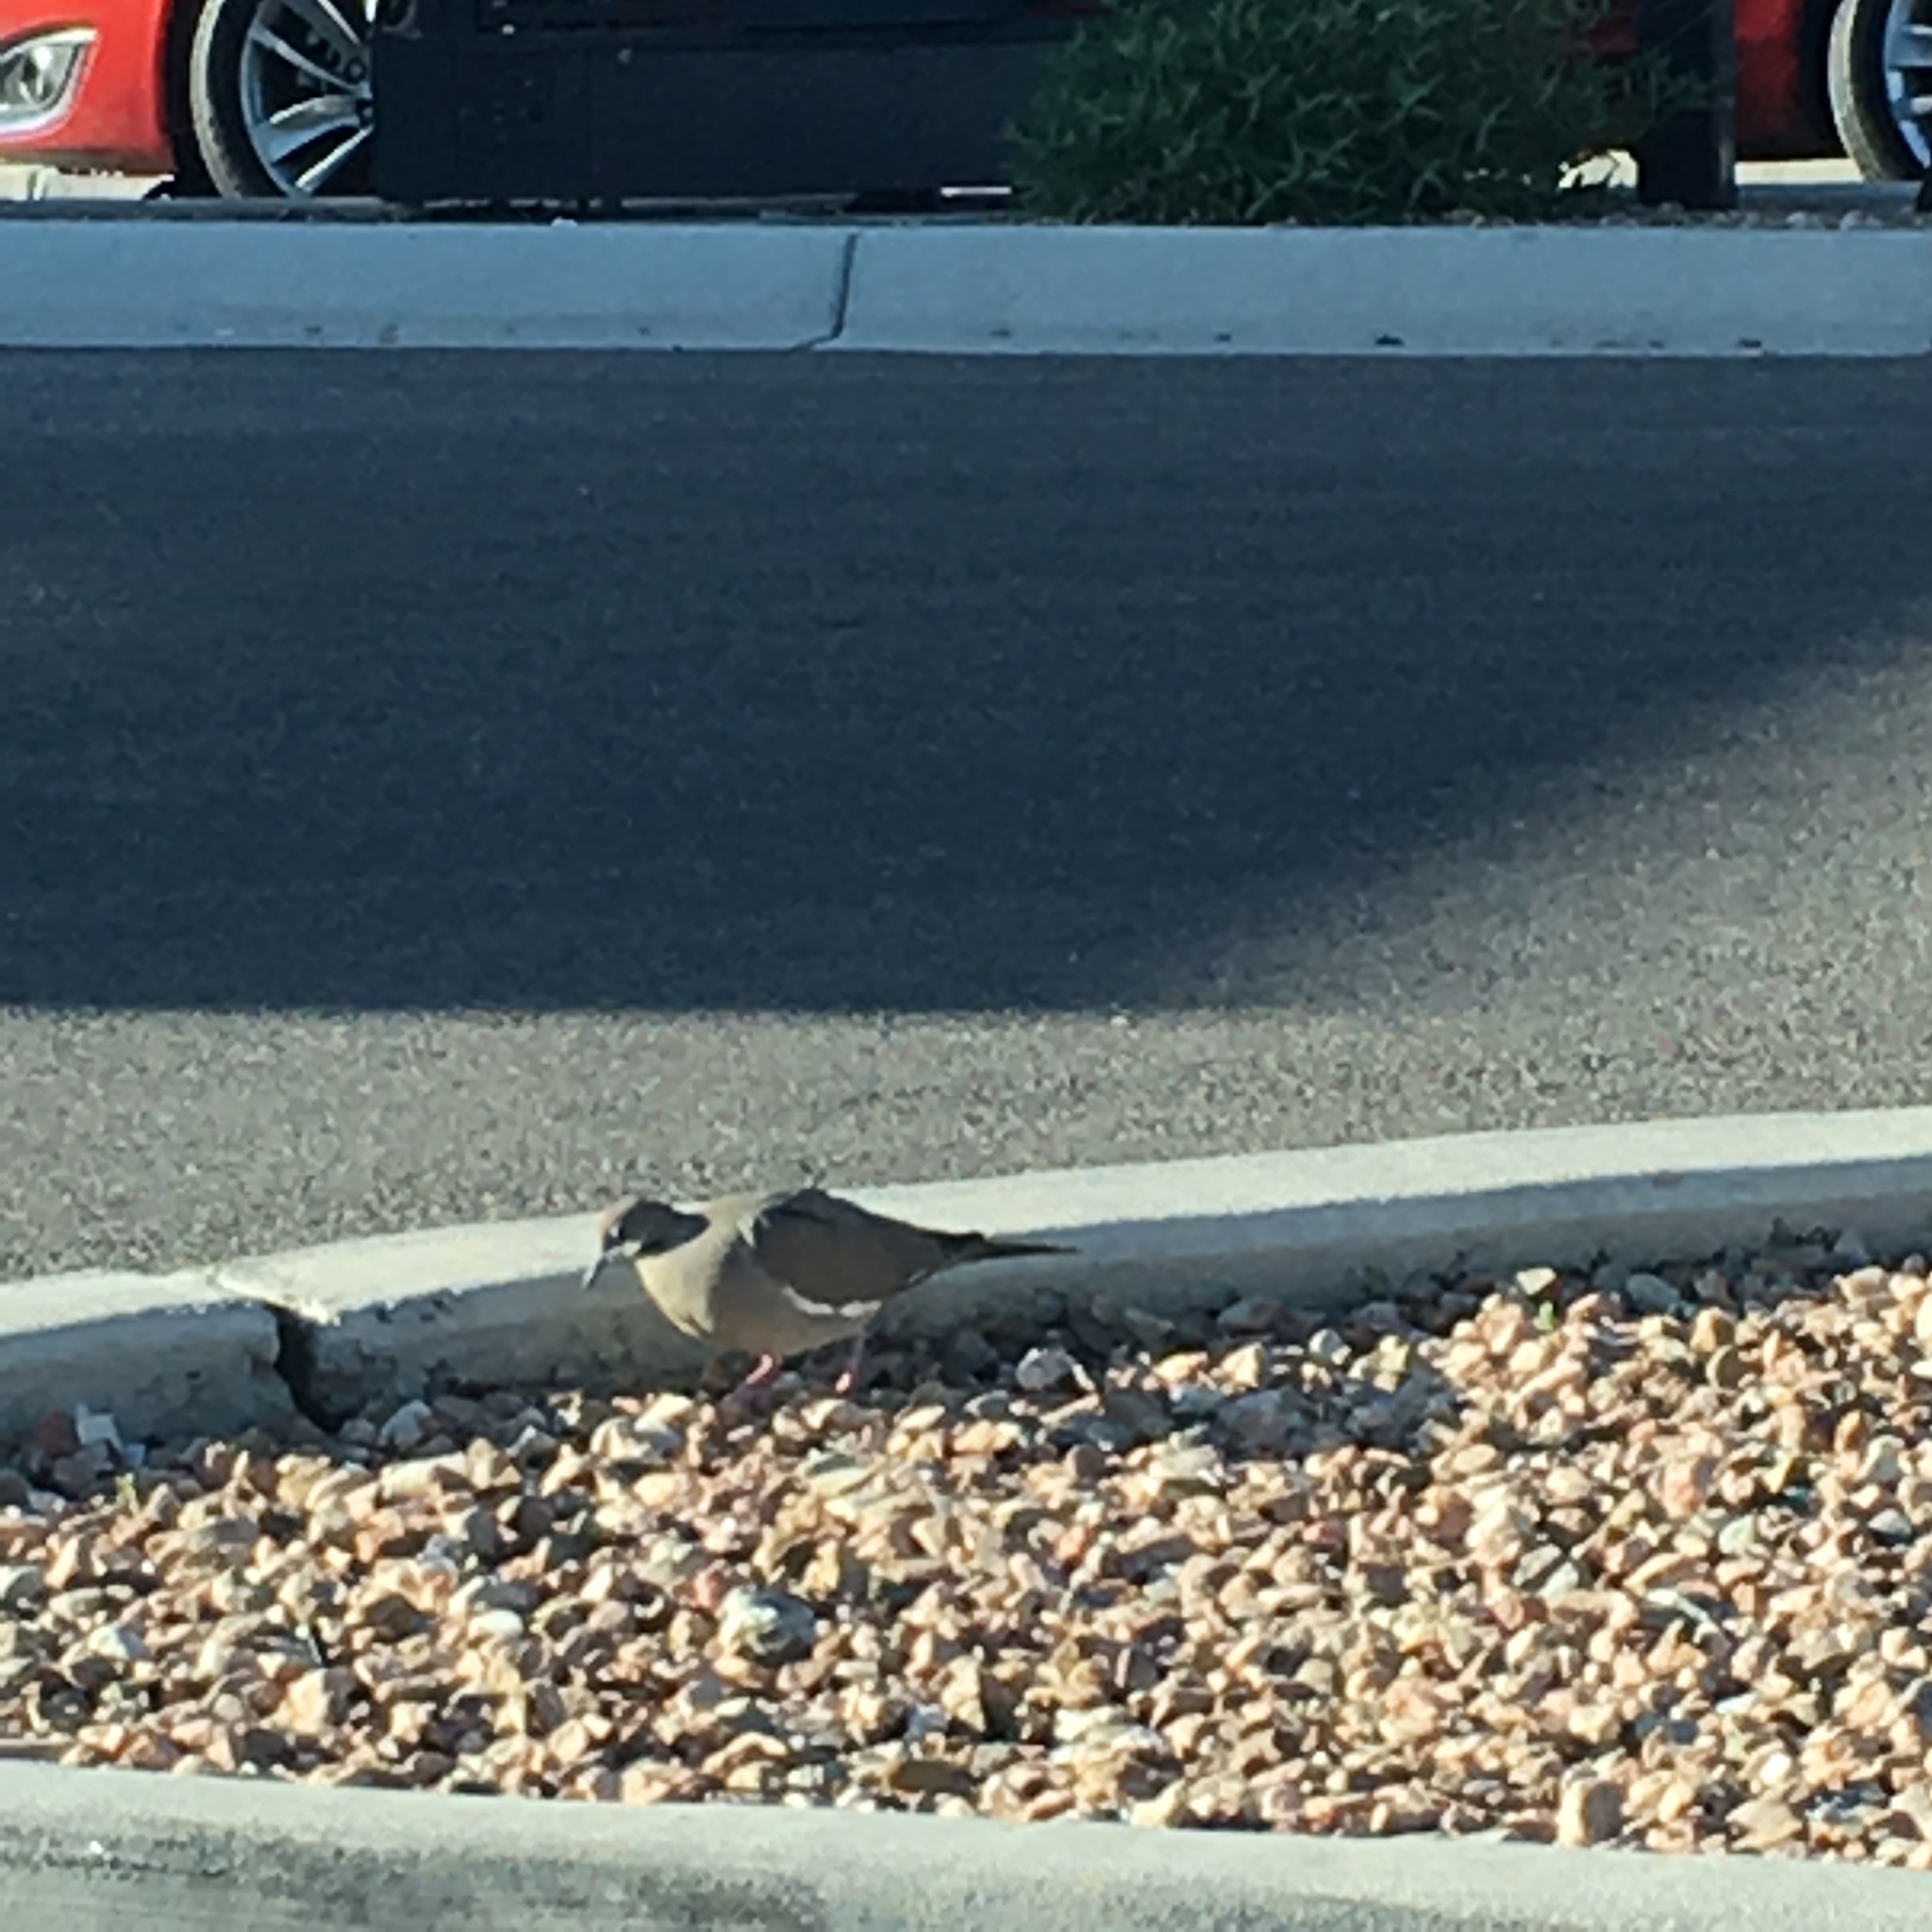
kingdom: Animalia
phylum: Chordata
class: Aves
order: Columbiformes
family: Columbidae
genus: Zenaida
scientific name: Zenaida asiatica
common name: White-winged dove
